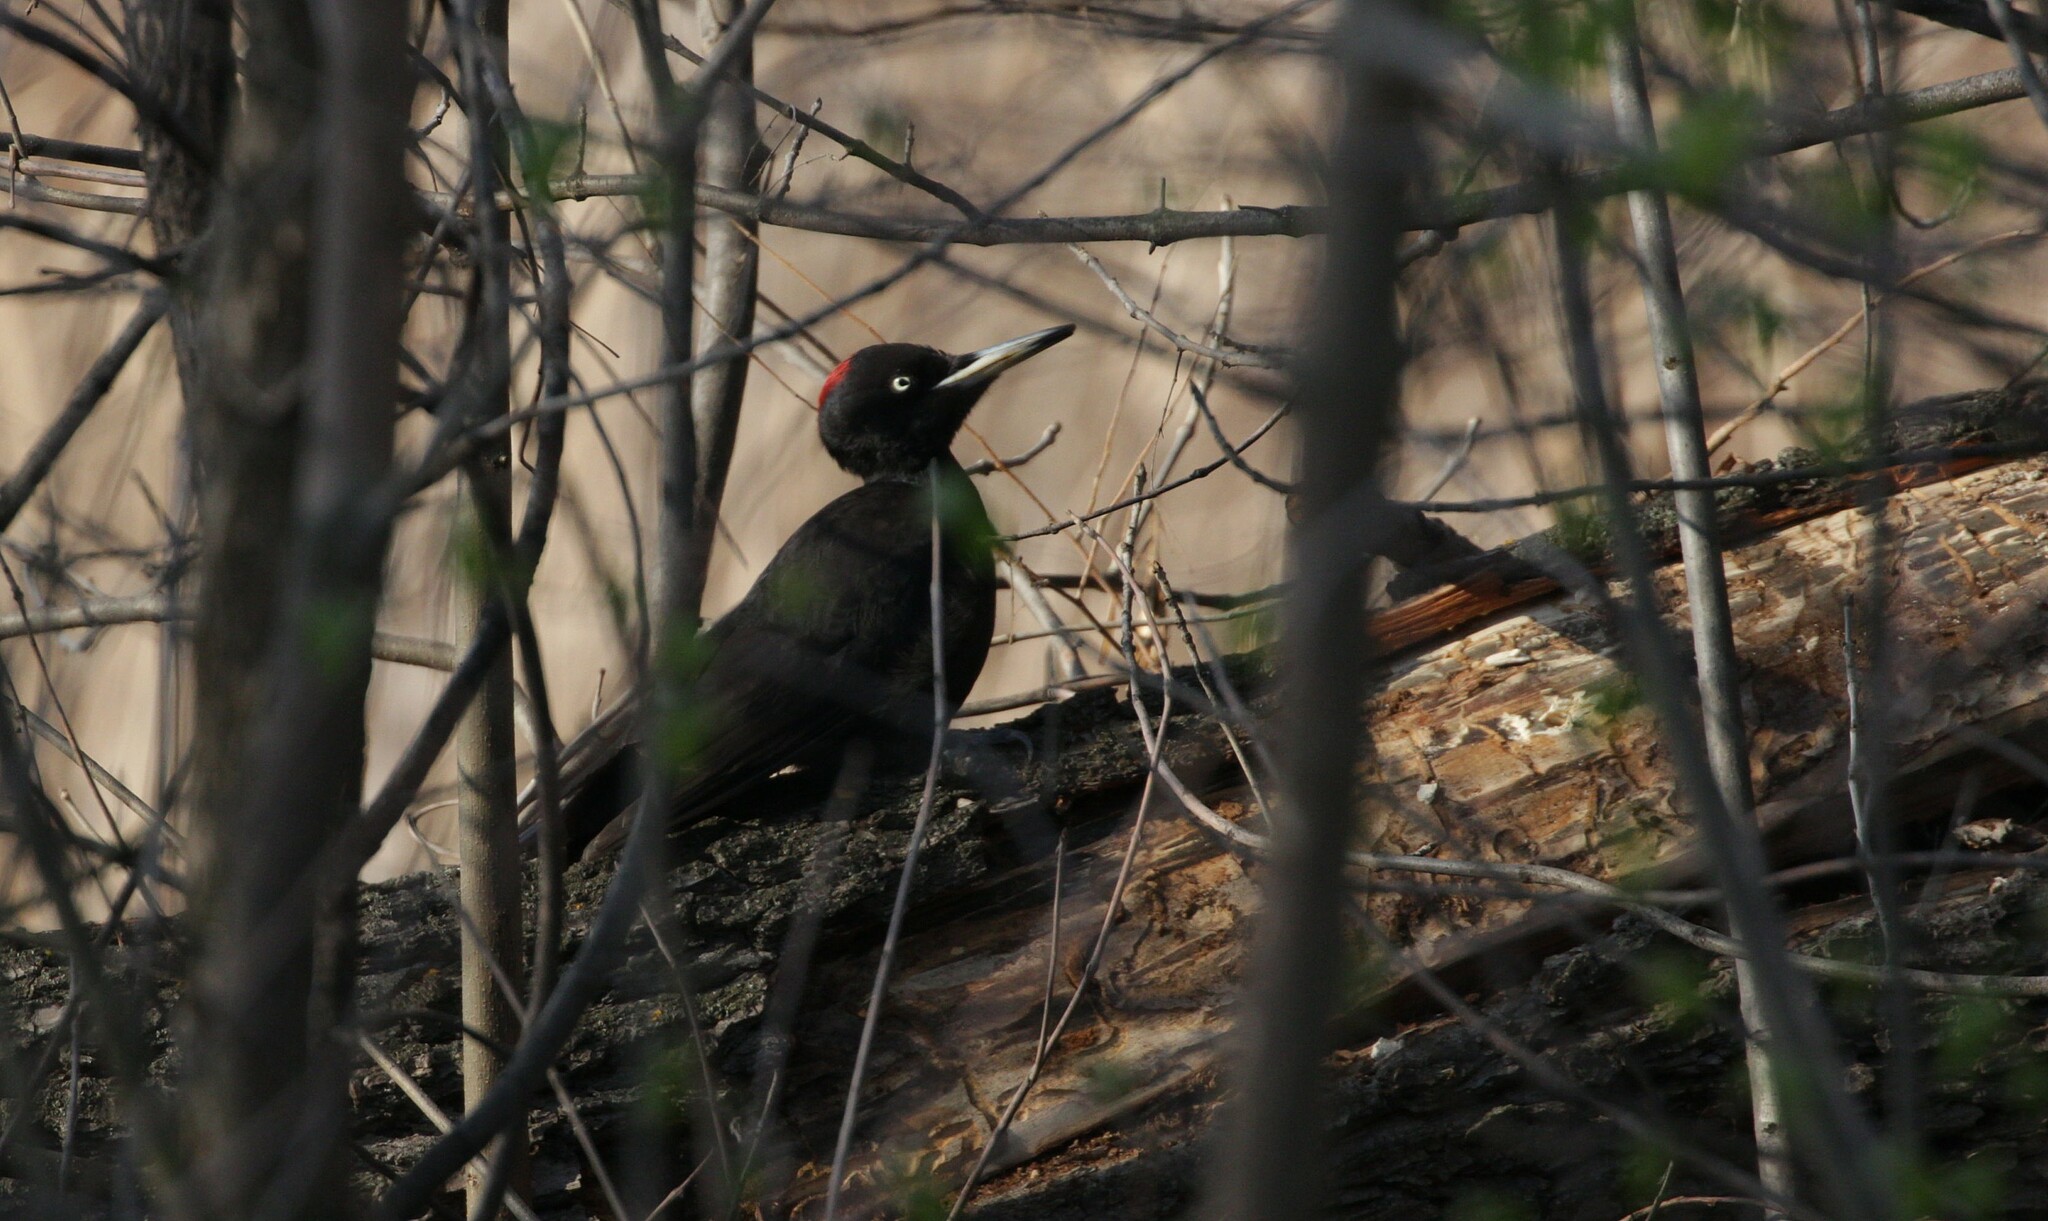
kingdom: Animalia
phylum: Chordata
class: Aves
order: Piciformes
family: Picidae
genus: Dryocopus
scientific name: Dryocopus martius
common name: Black woodpecker
